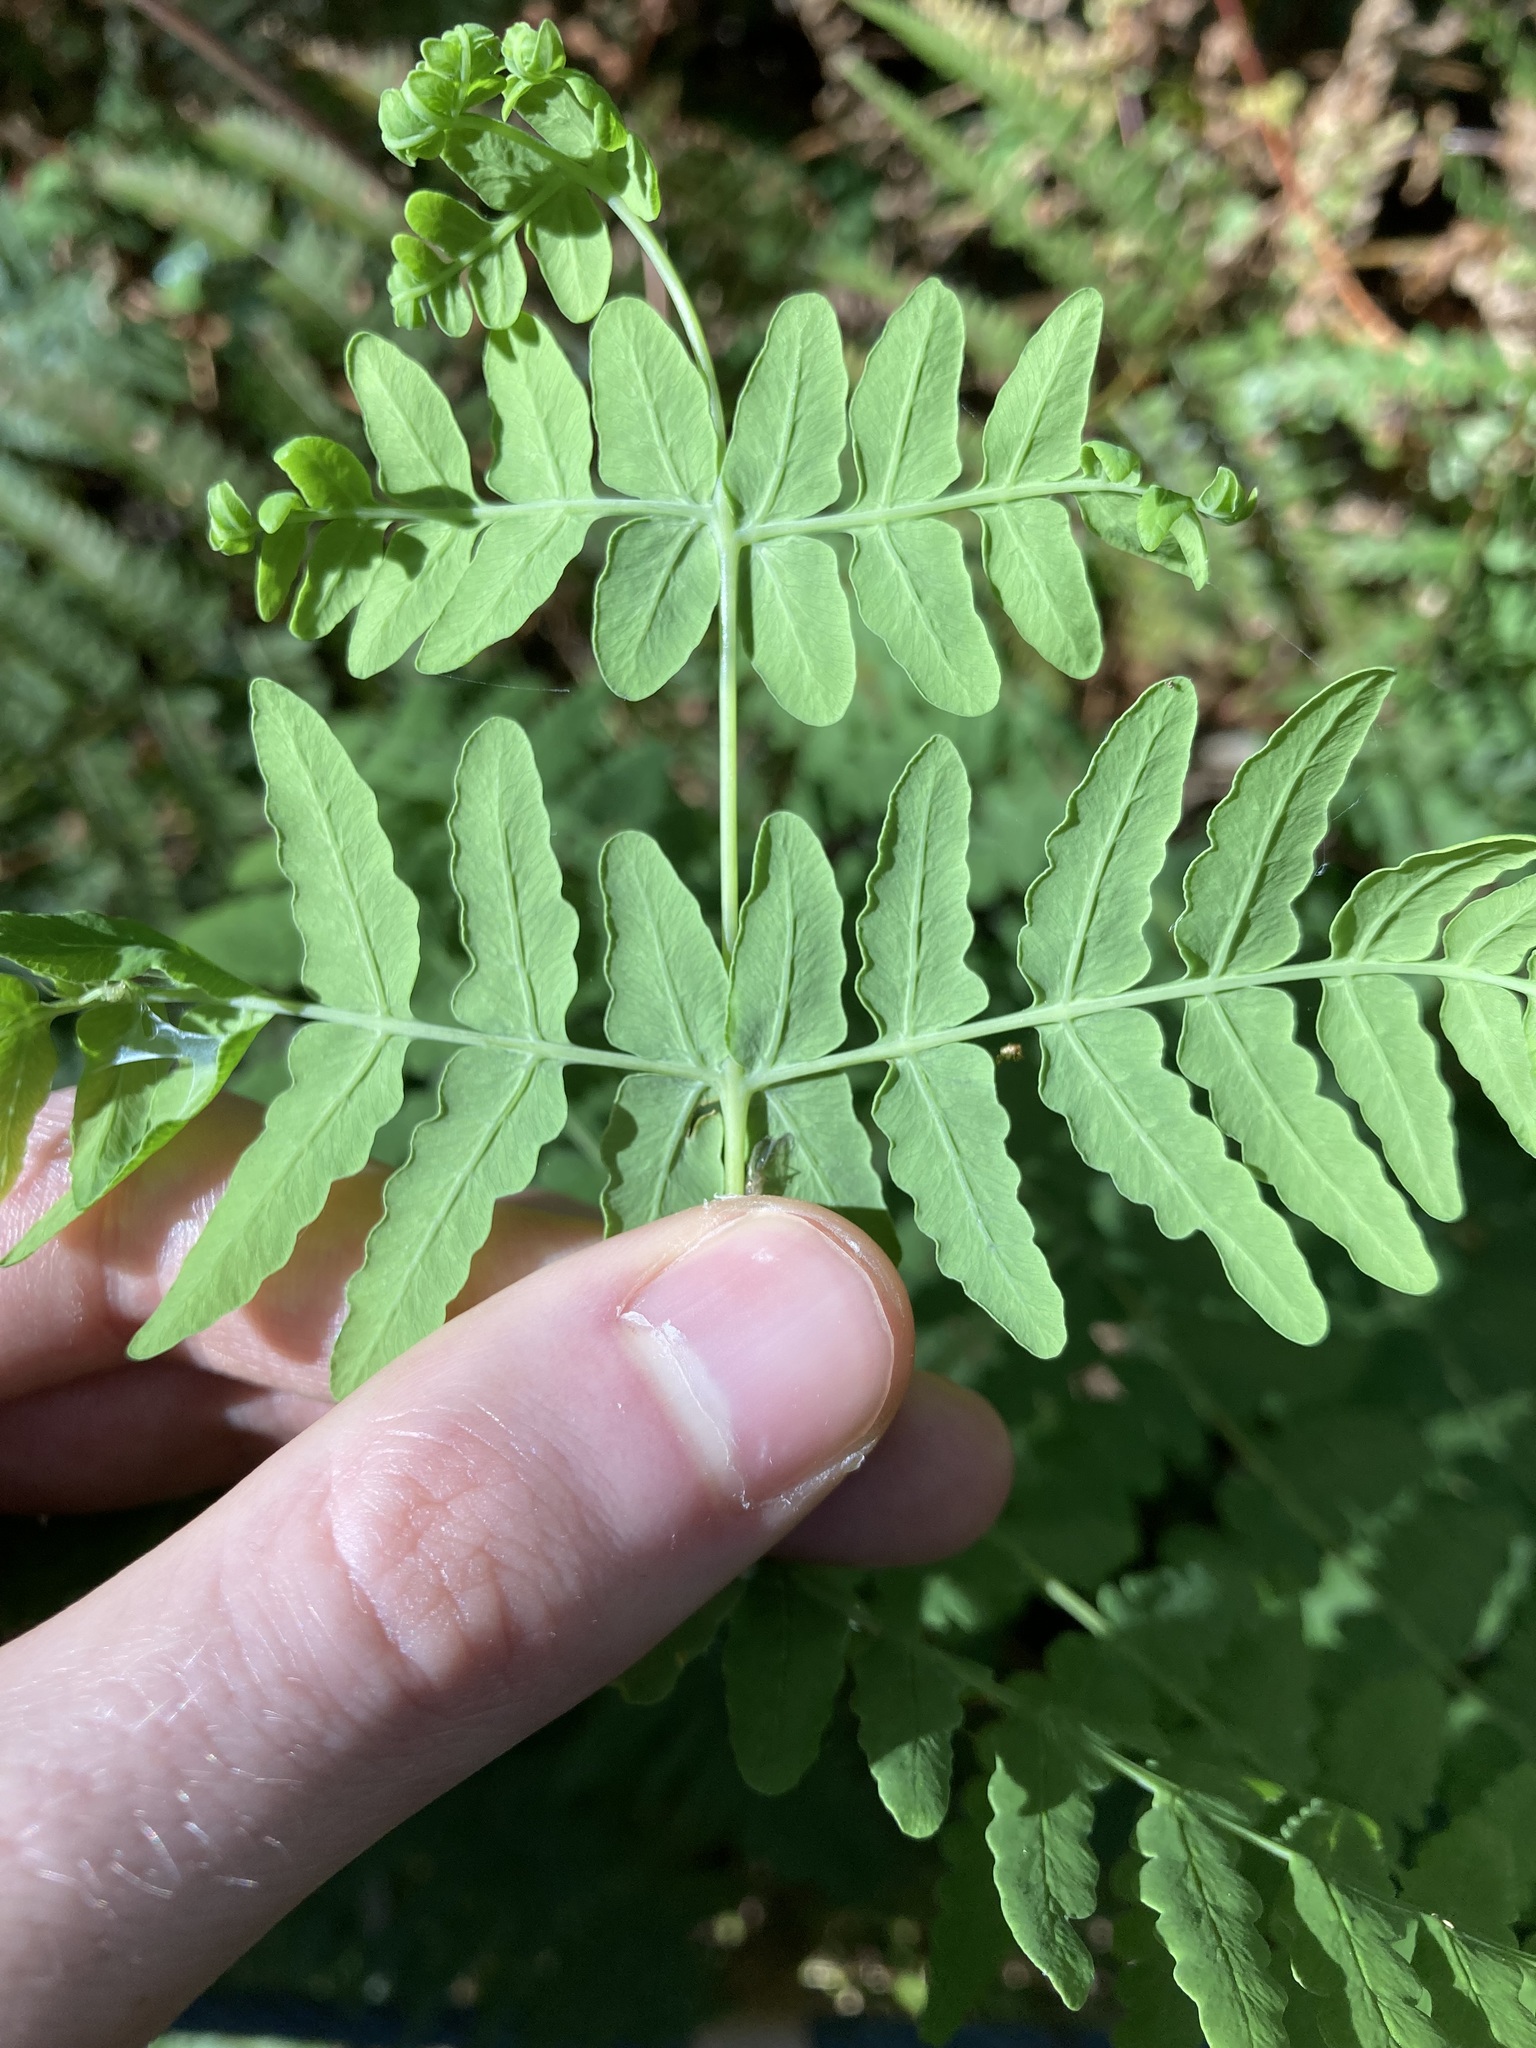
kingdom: Plantae
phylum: Tracheophyta
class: Polypodiopsida
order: Polypodiales
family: Dennstaedtiaceae
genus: Histiopteris
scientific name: Histiopteris incisa
